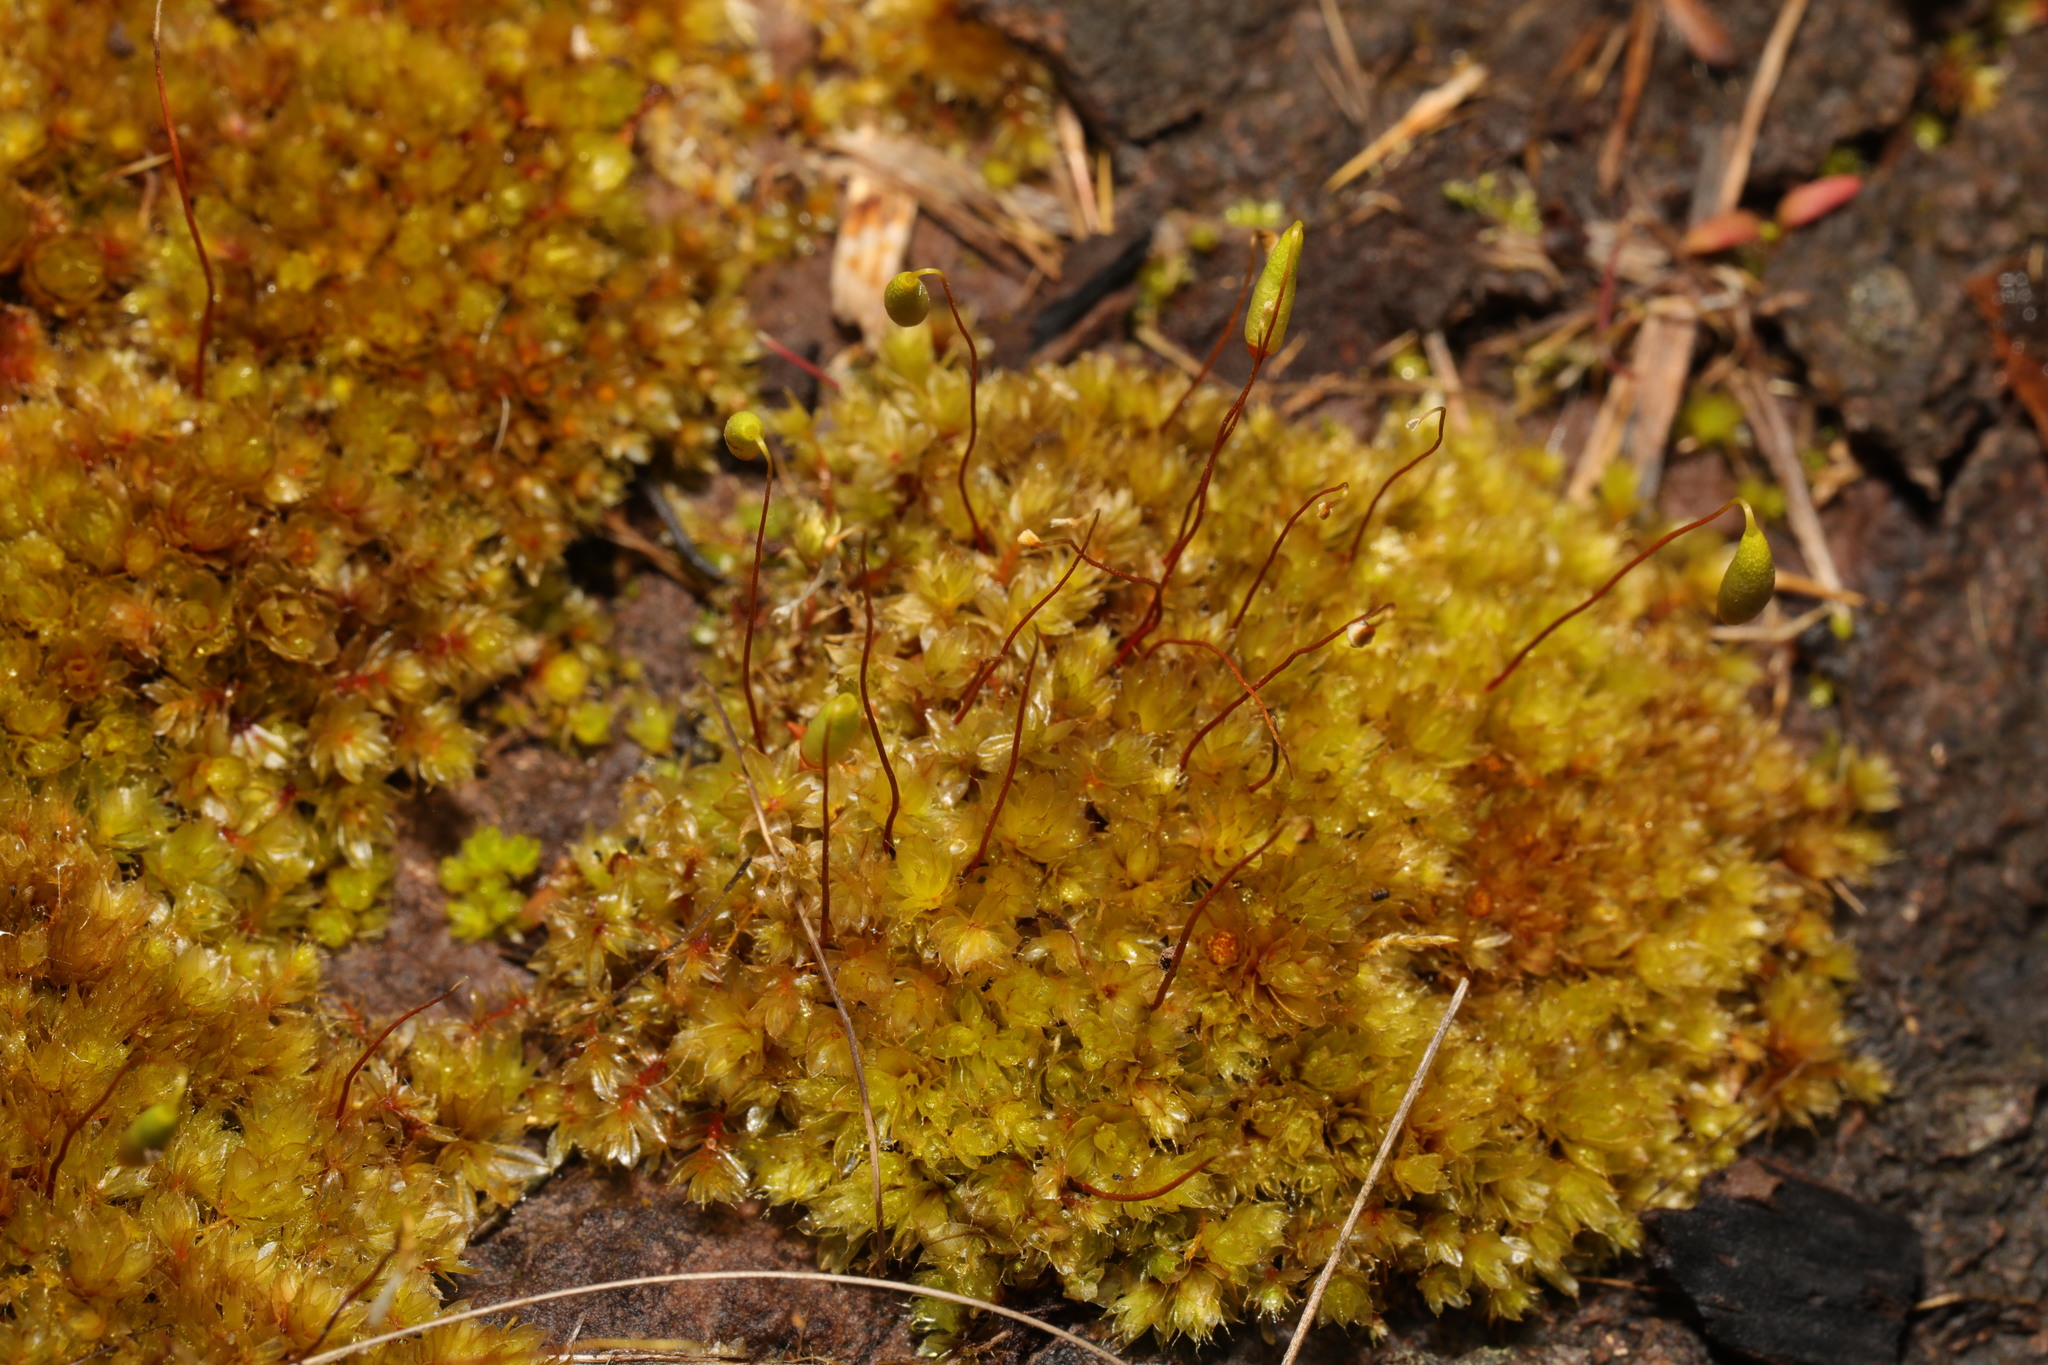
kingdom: Plantae
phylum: Bryophyta
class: Bryopsida
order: Bryales
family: Bryaceae
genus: Rosulabryum
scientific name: Rosulabryum capillare
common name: Capillary thread-moss
